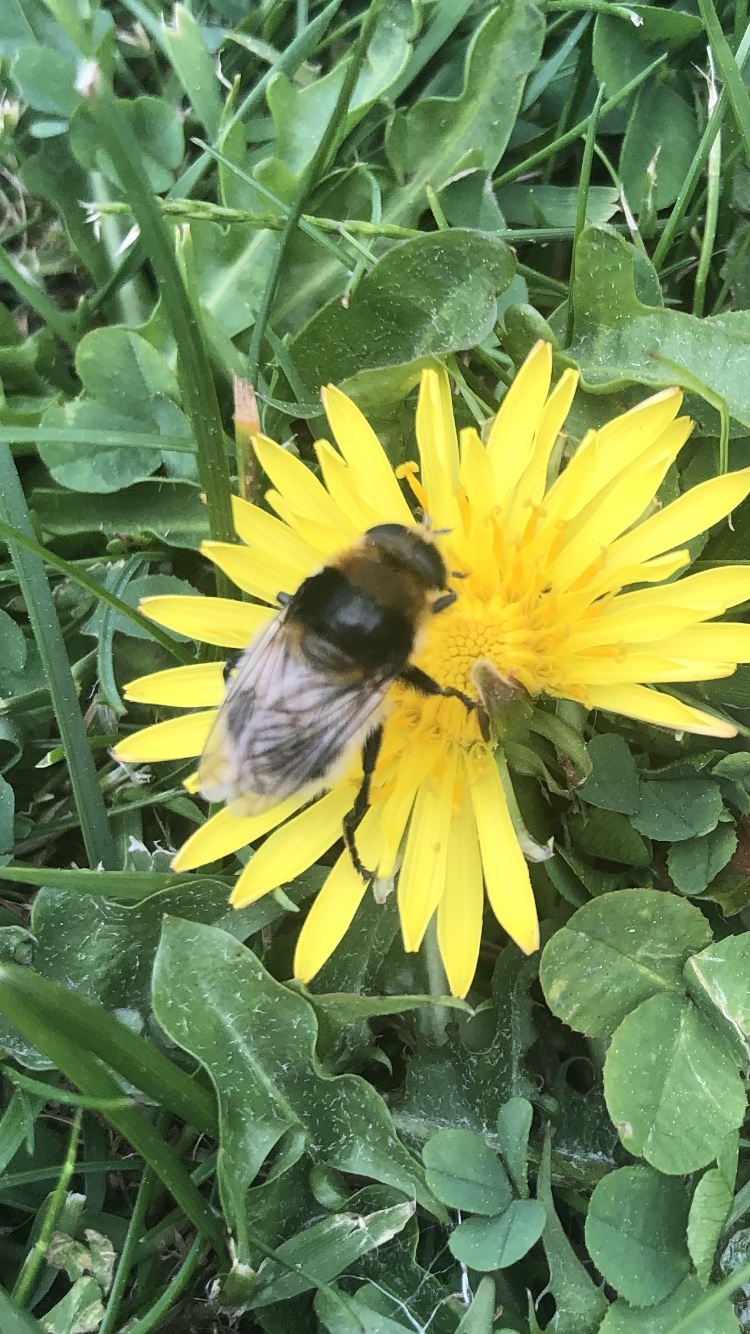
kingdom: Animalia
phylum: Arthropoda
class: Insecta
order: Diptera
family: Syrphidae
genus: Merodon
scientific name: Merodon equestris
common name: Greater bulb-fly
